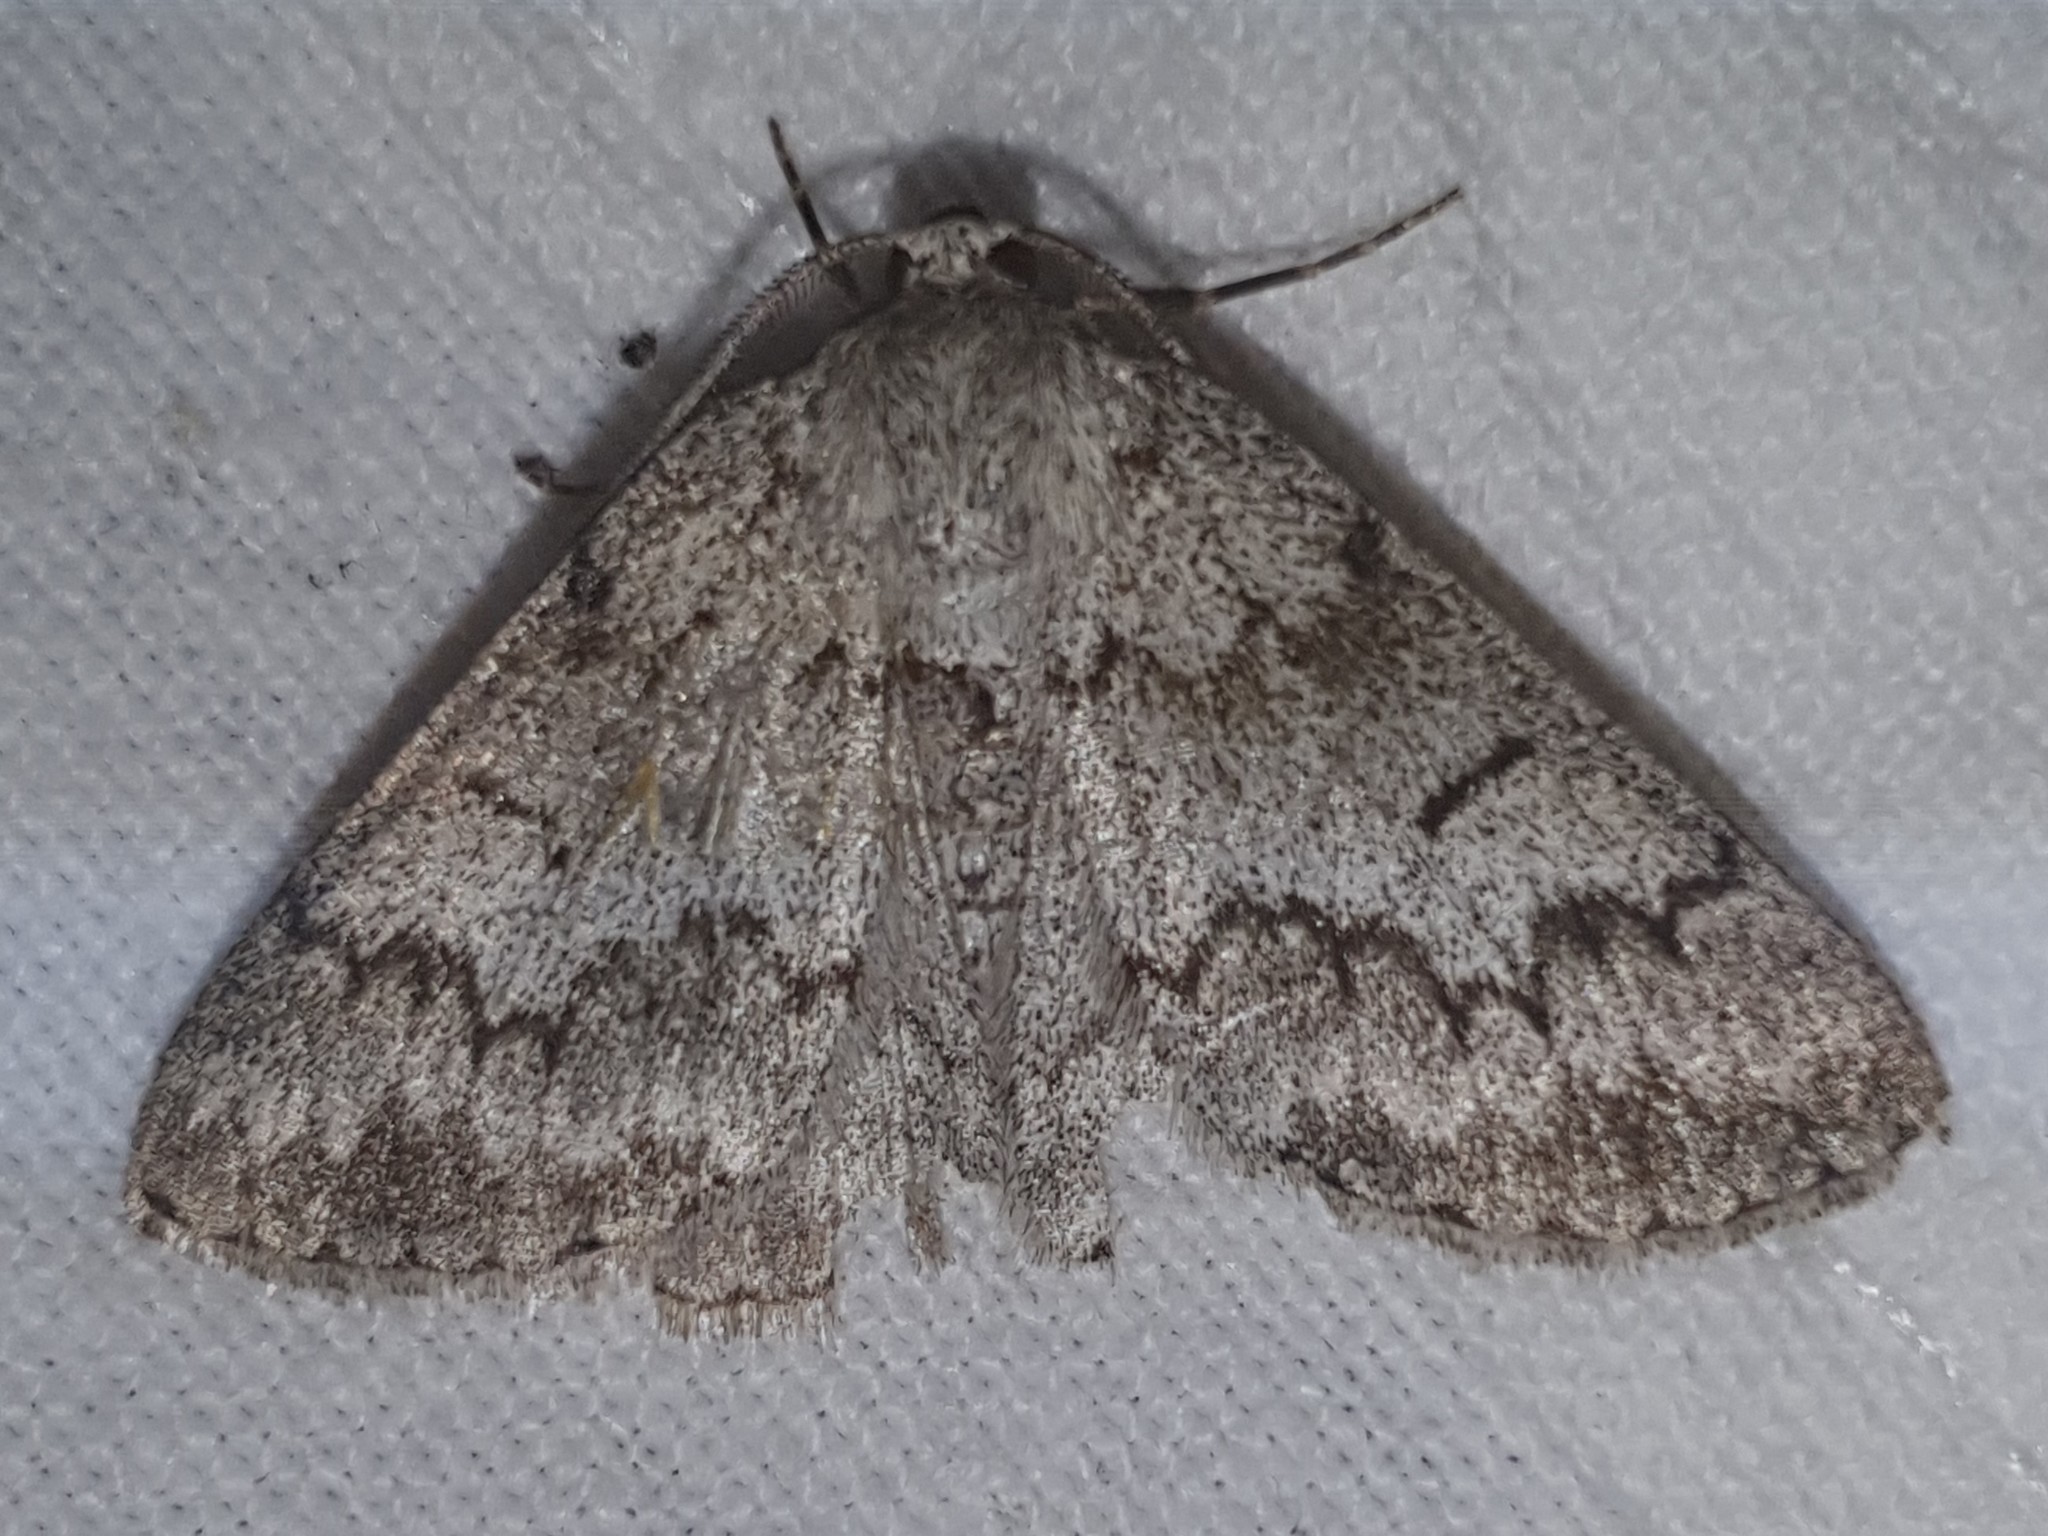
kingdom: Animalia
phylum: Arthropoda
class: Insecta
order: Lepidoptera
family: Geometridae
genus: Pseudoterpna
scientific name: Pseudoterpna coronillaria
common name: Jersey emerald
